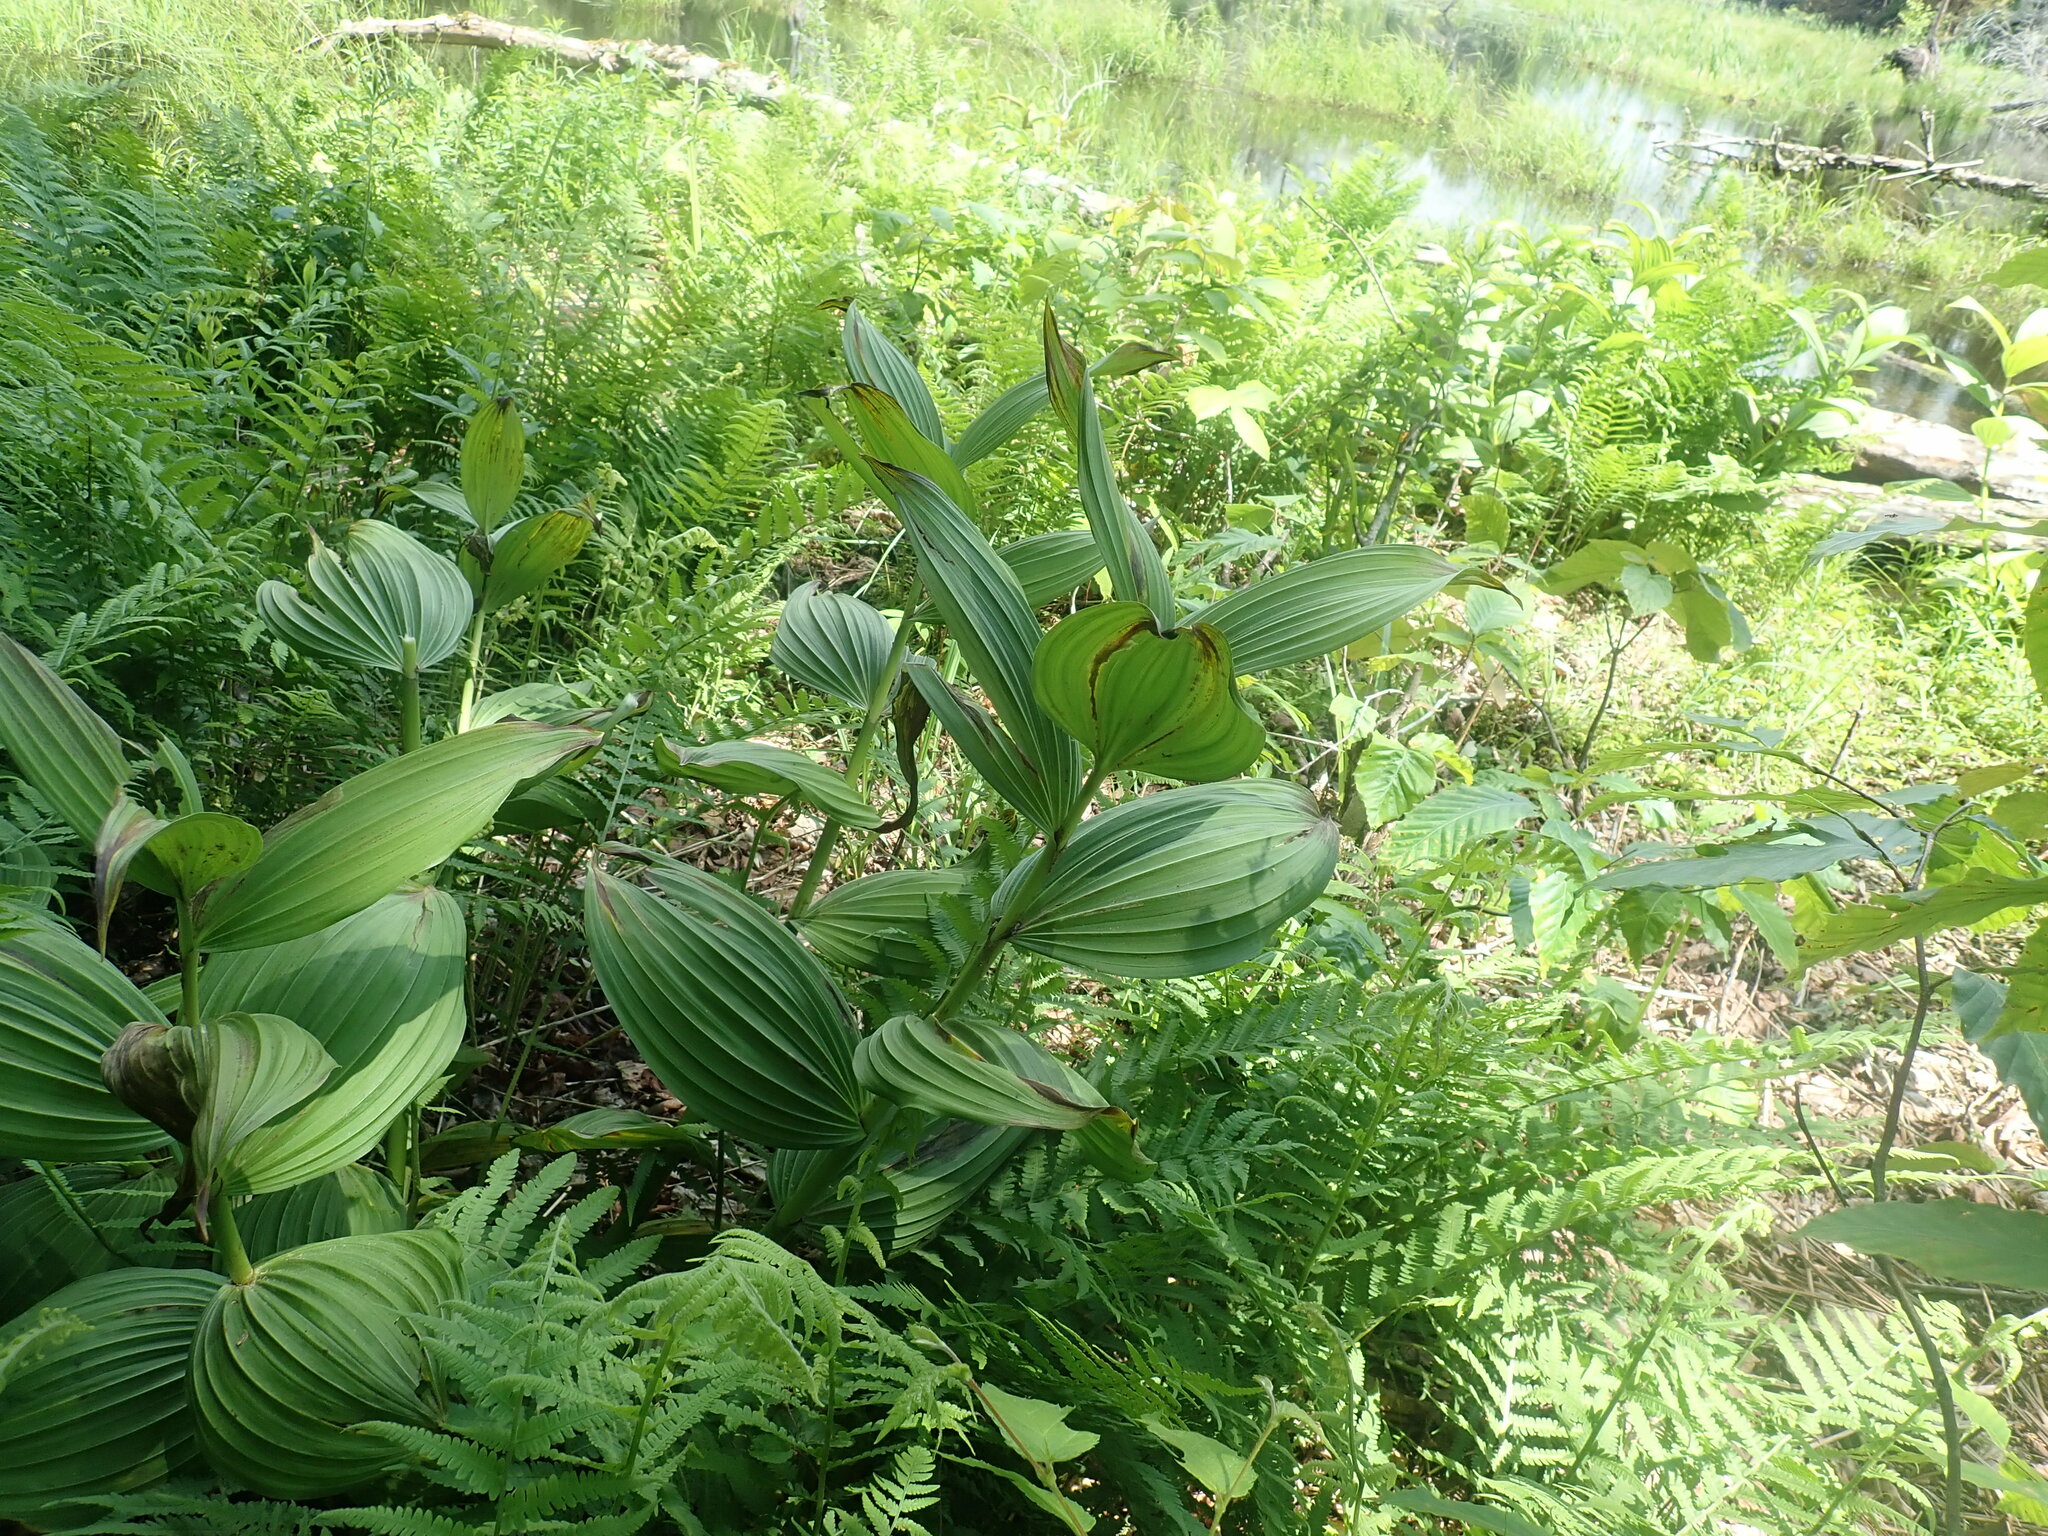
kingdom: Plantae
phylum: Tracheophyta
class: Liliopsida
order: Liliales
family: Melanthiaceae
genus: Veratrum
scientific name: Veratrum viride
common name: American false hellebore
